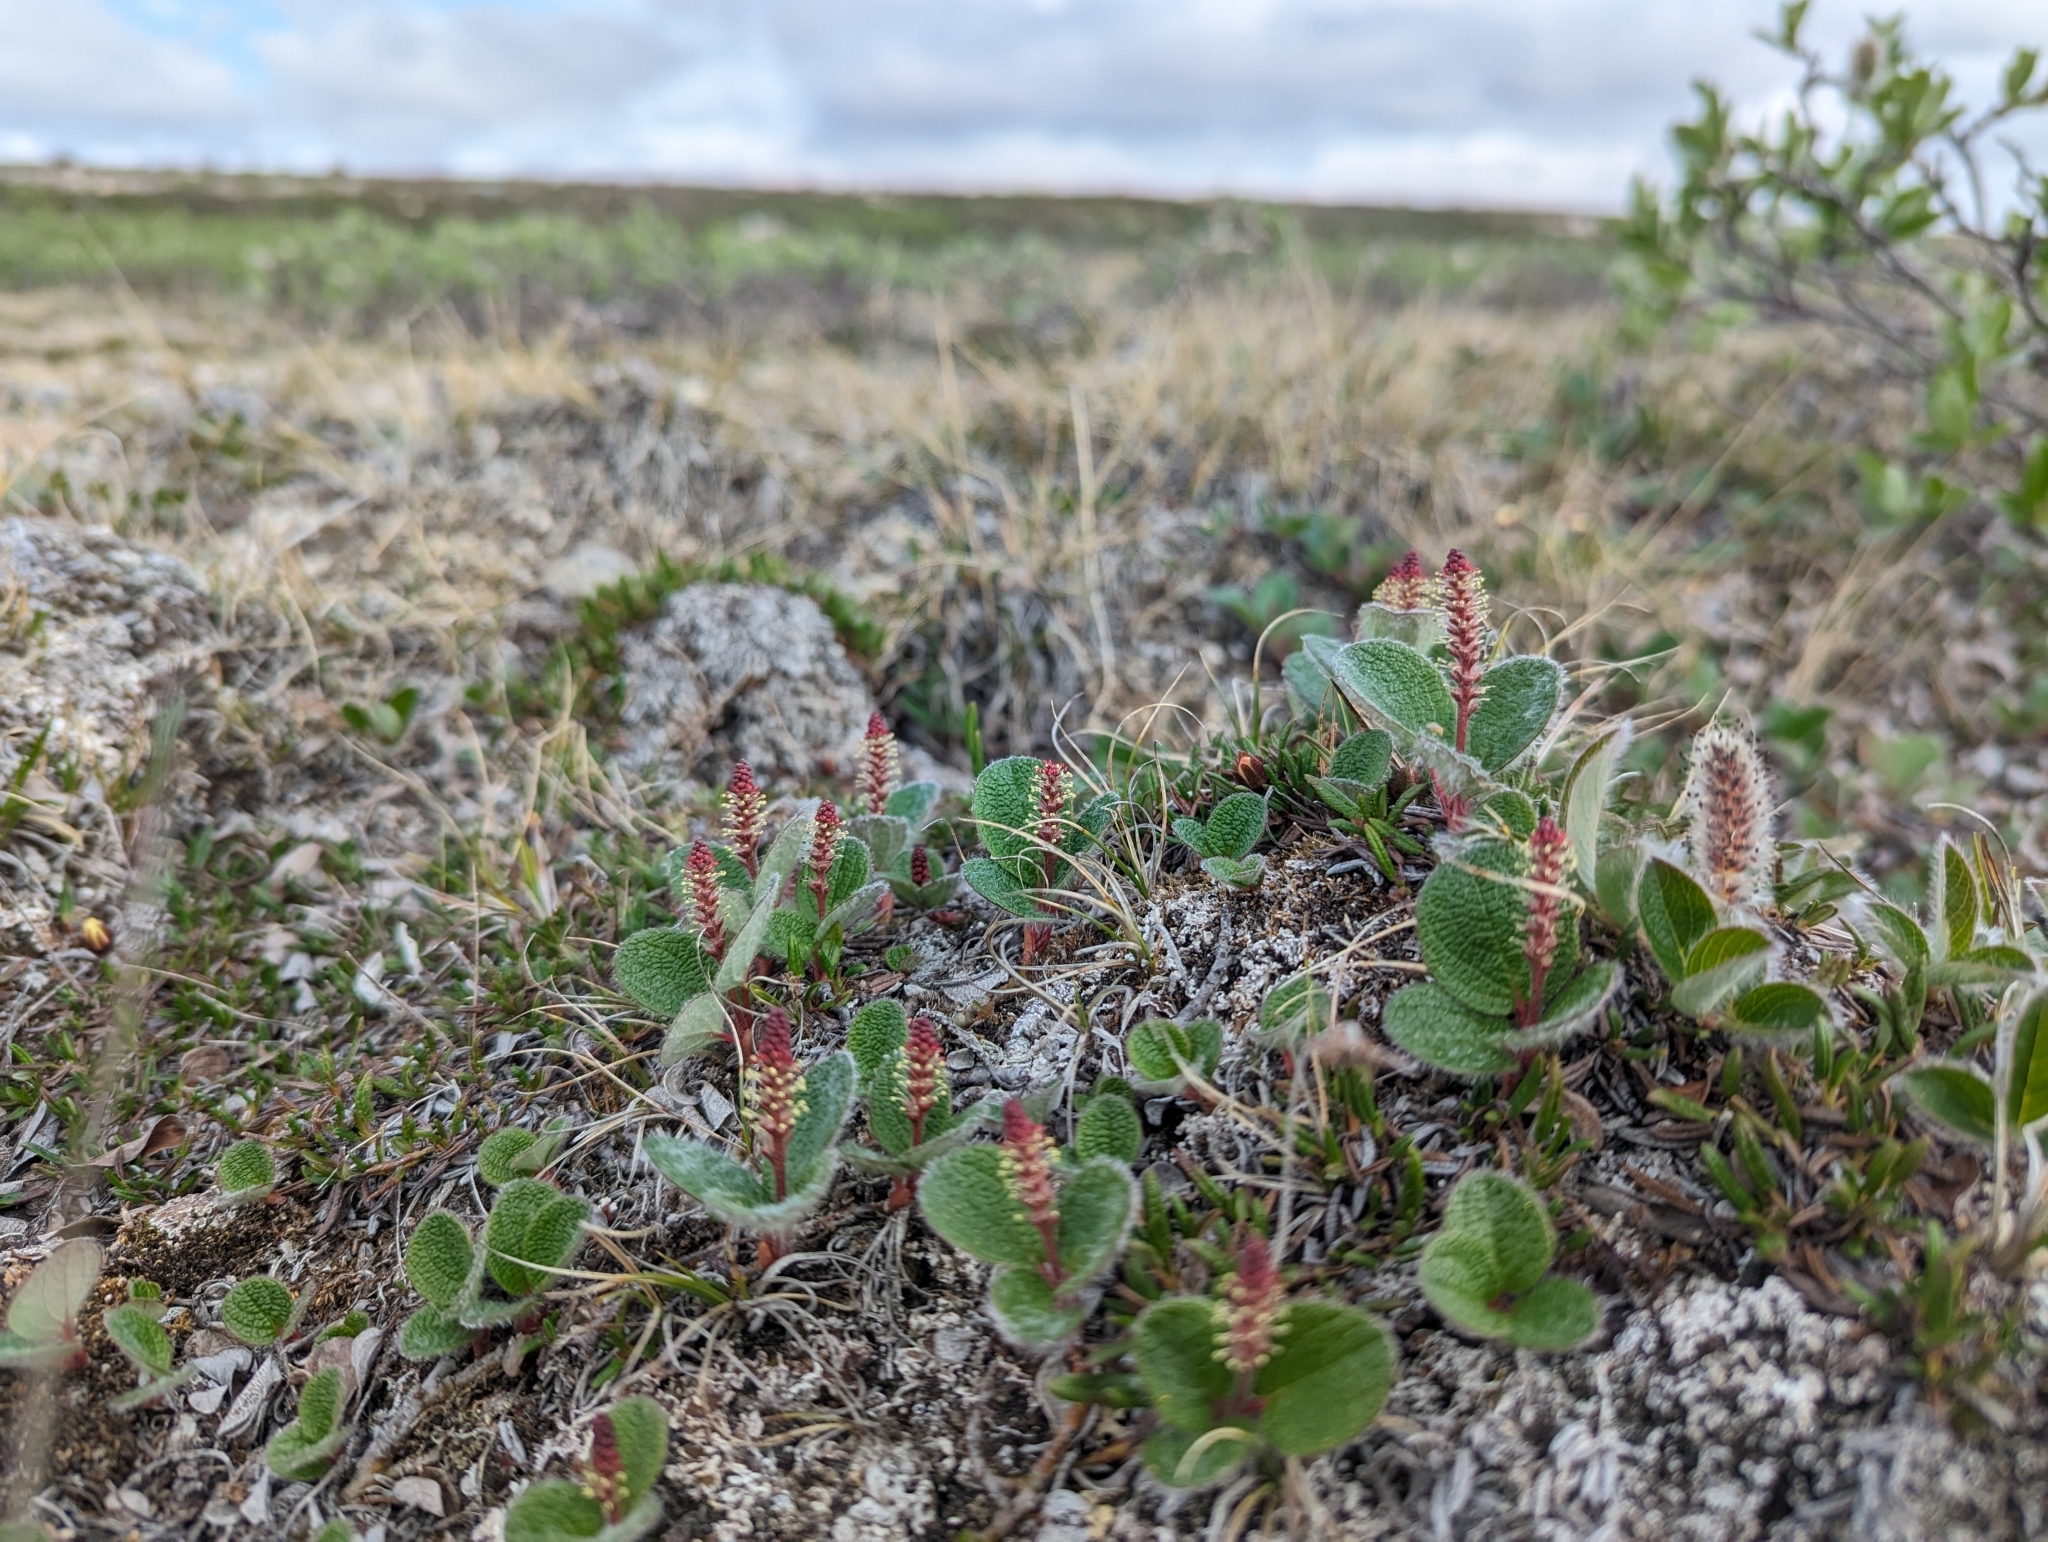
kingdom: Plantae
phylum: Tracheophyta
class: Magnoliopsida
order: Malpighiales
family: Salicaceae
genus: Salix
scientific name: Salix reticulata
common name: Net-leaved willow
